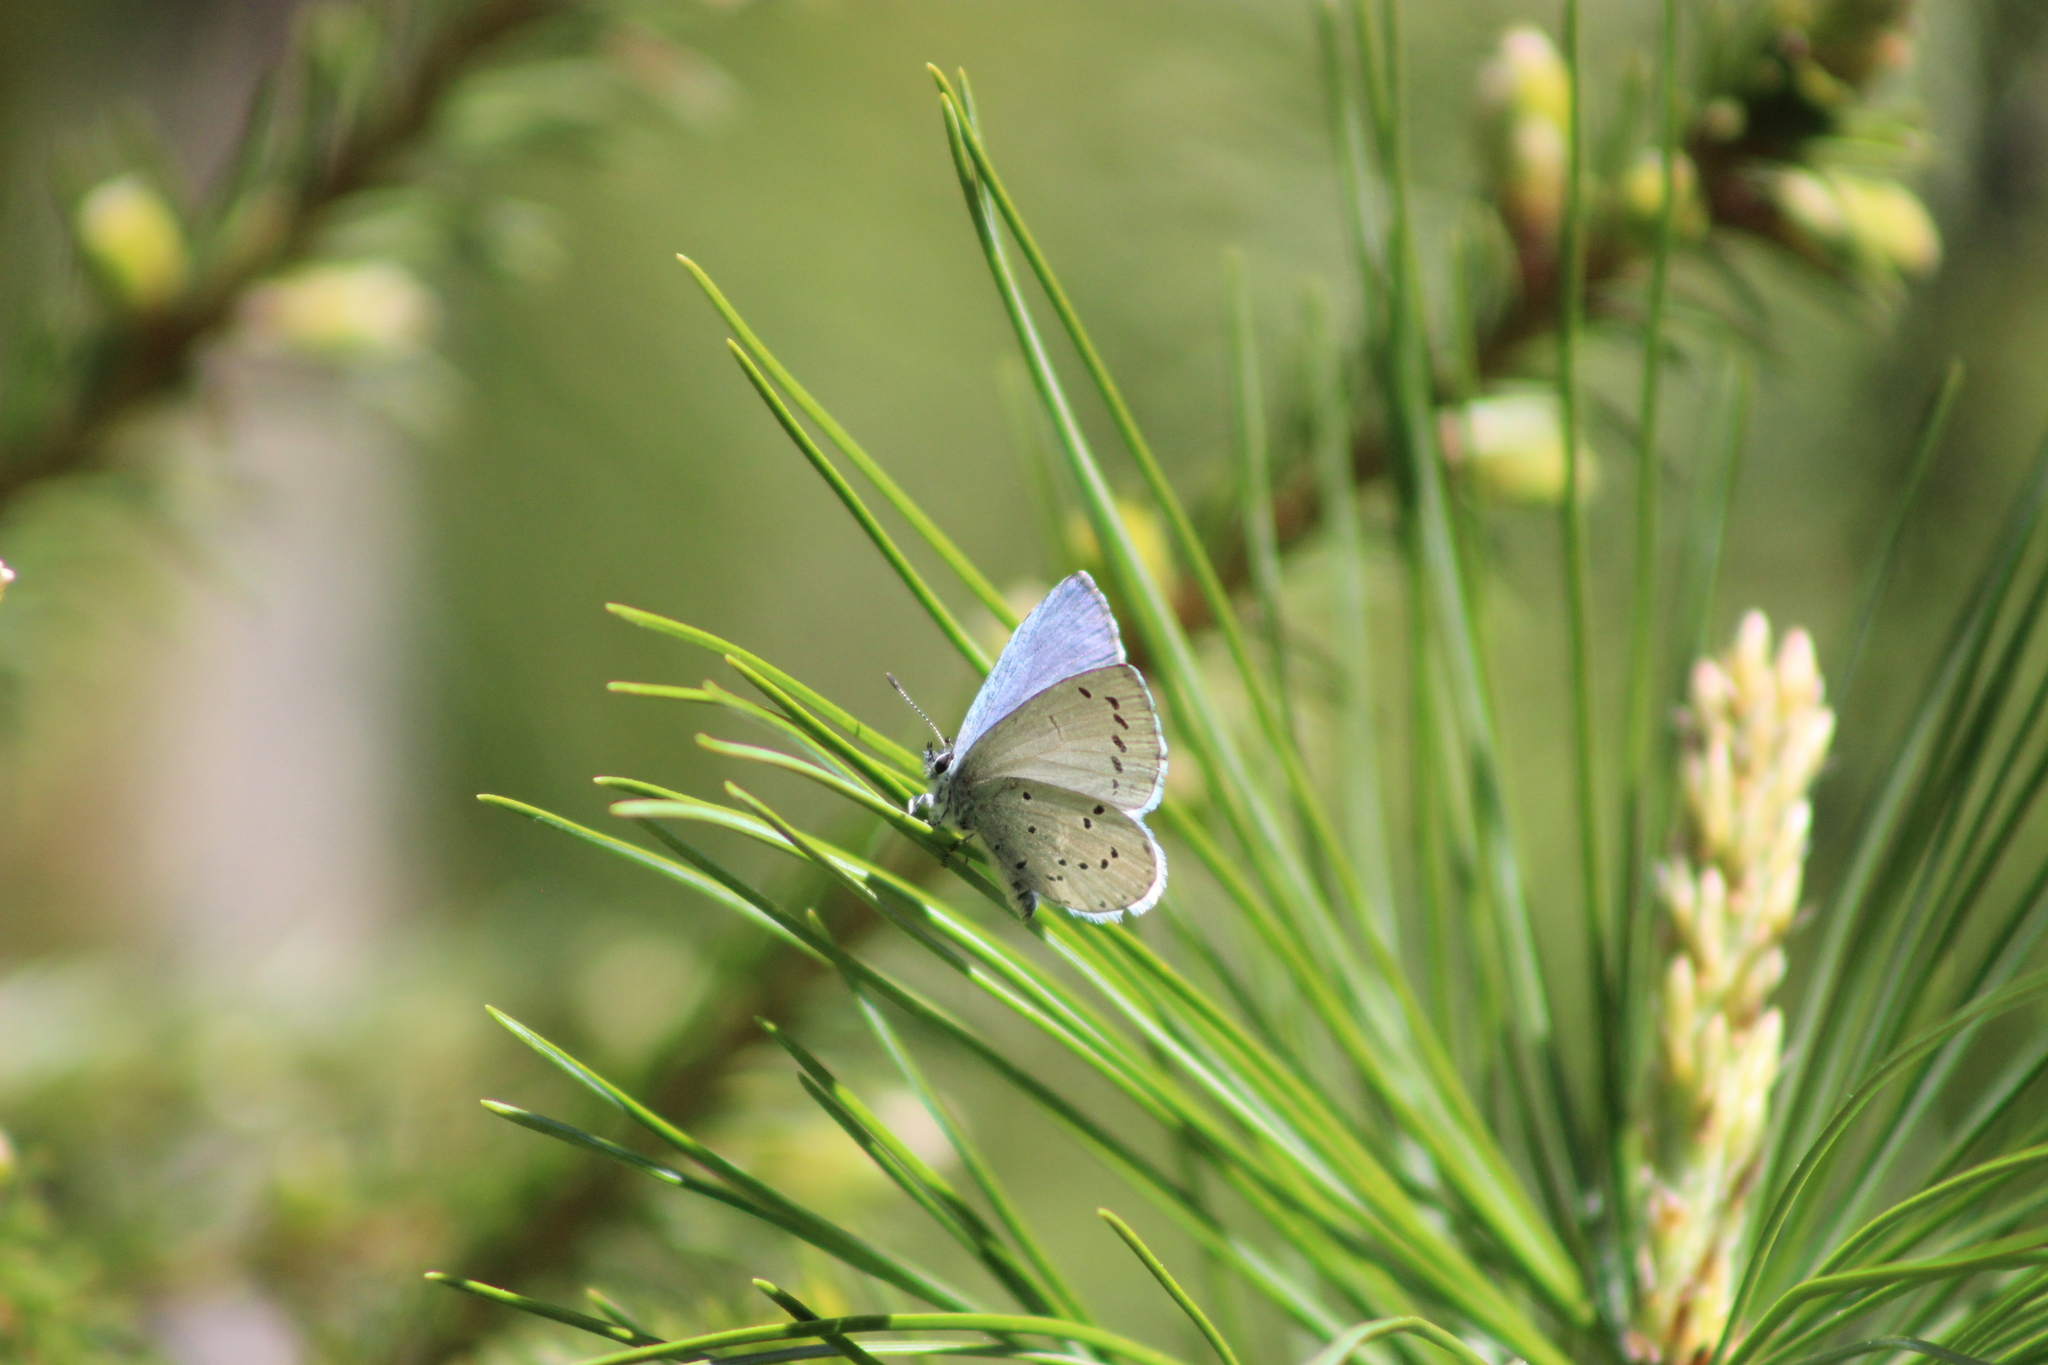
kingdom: Animalia
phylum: Arthropoda
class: Insecta
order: Lepidoptera
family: Lycaenidae
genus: Celastrina
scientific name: Celastrina argiolus
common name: Holly blue
